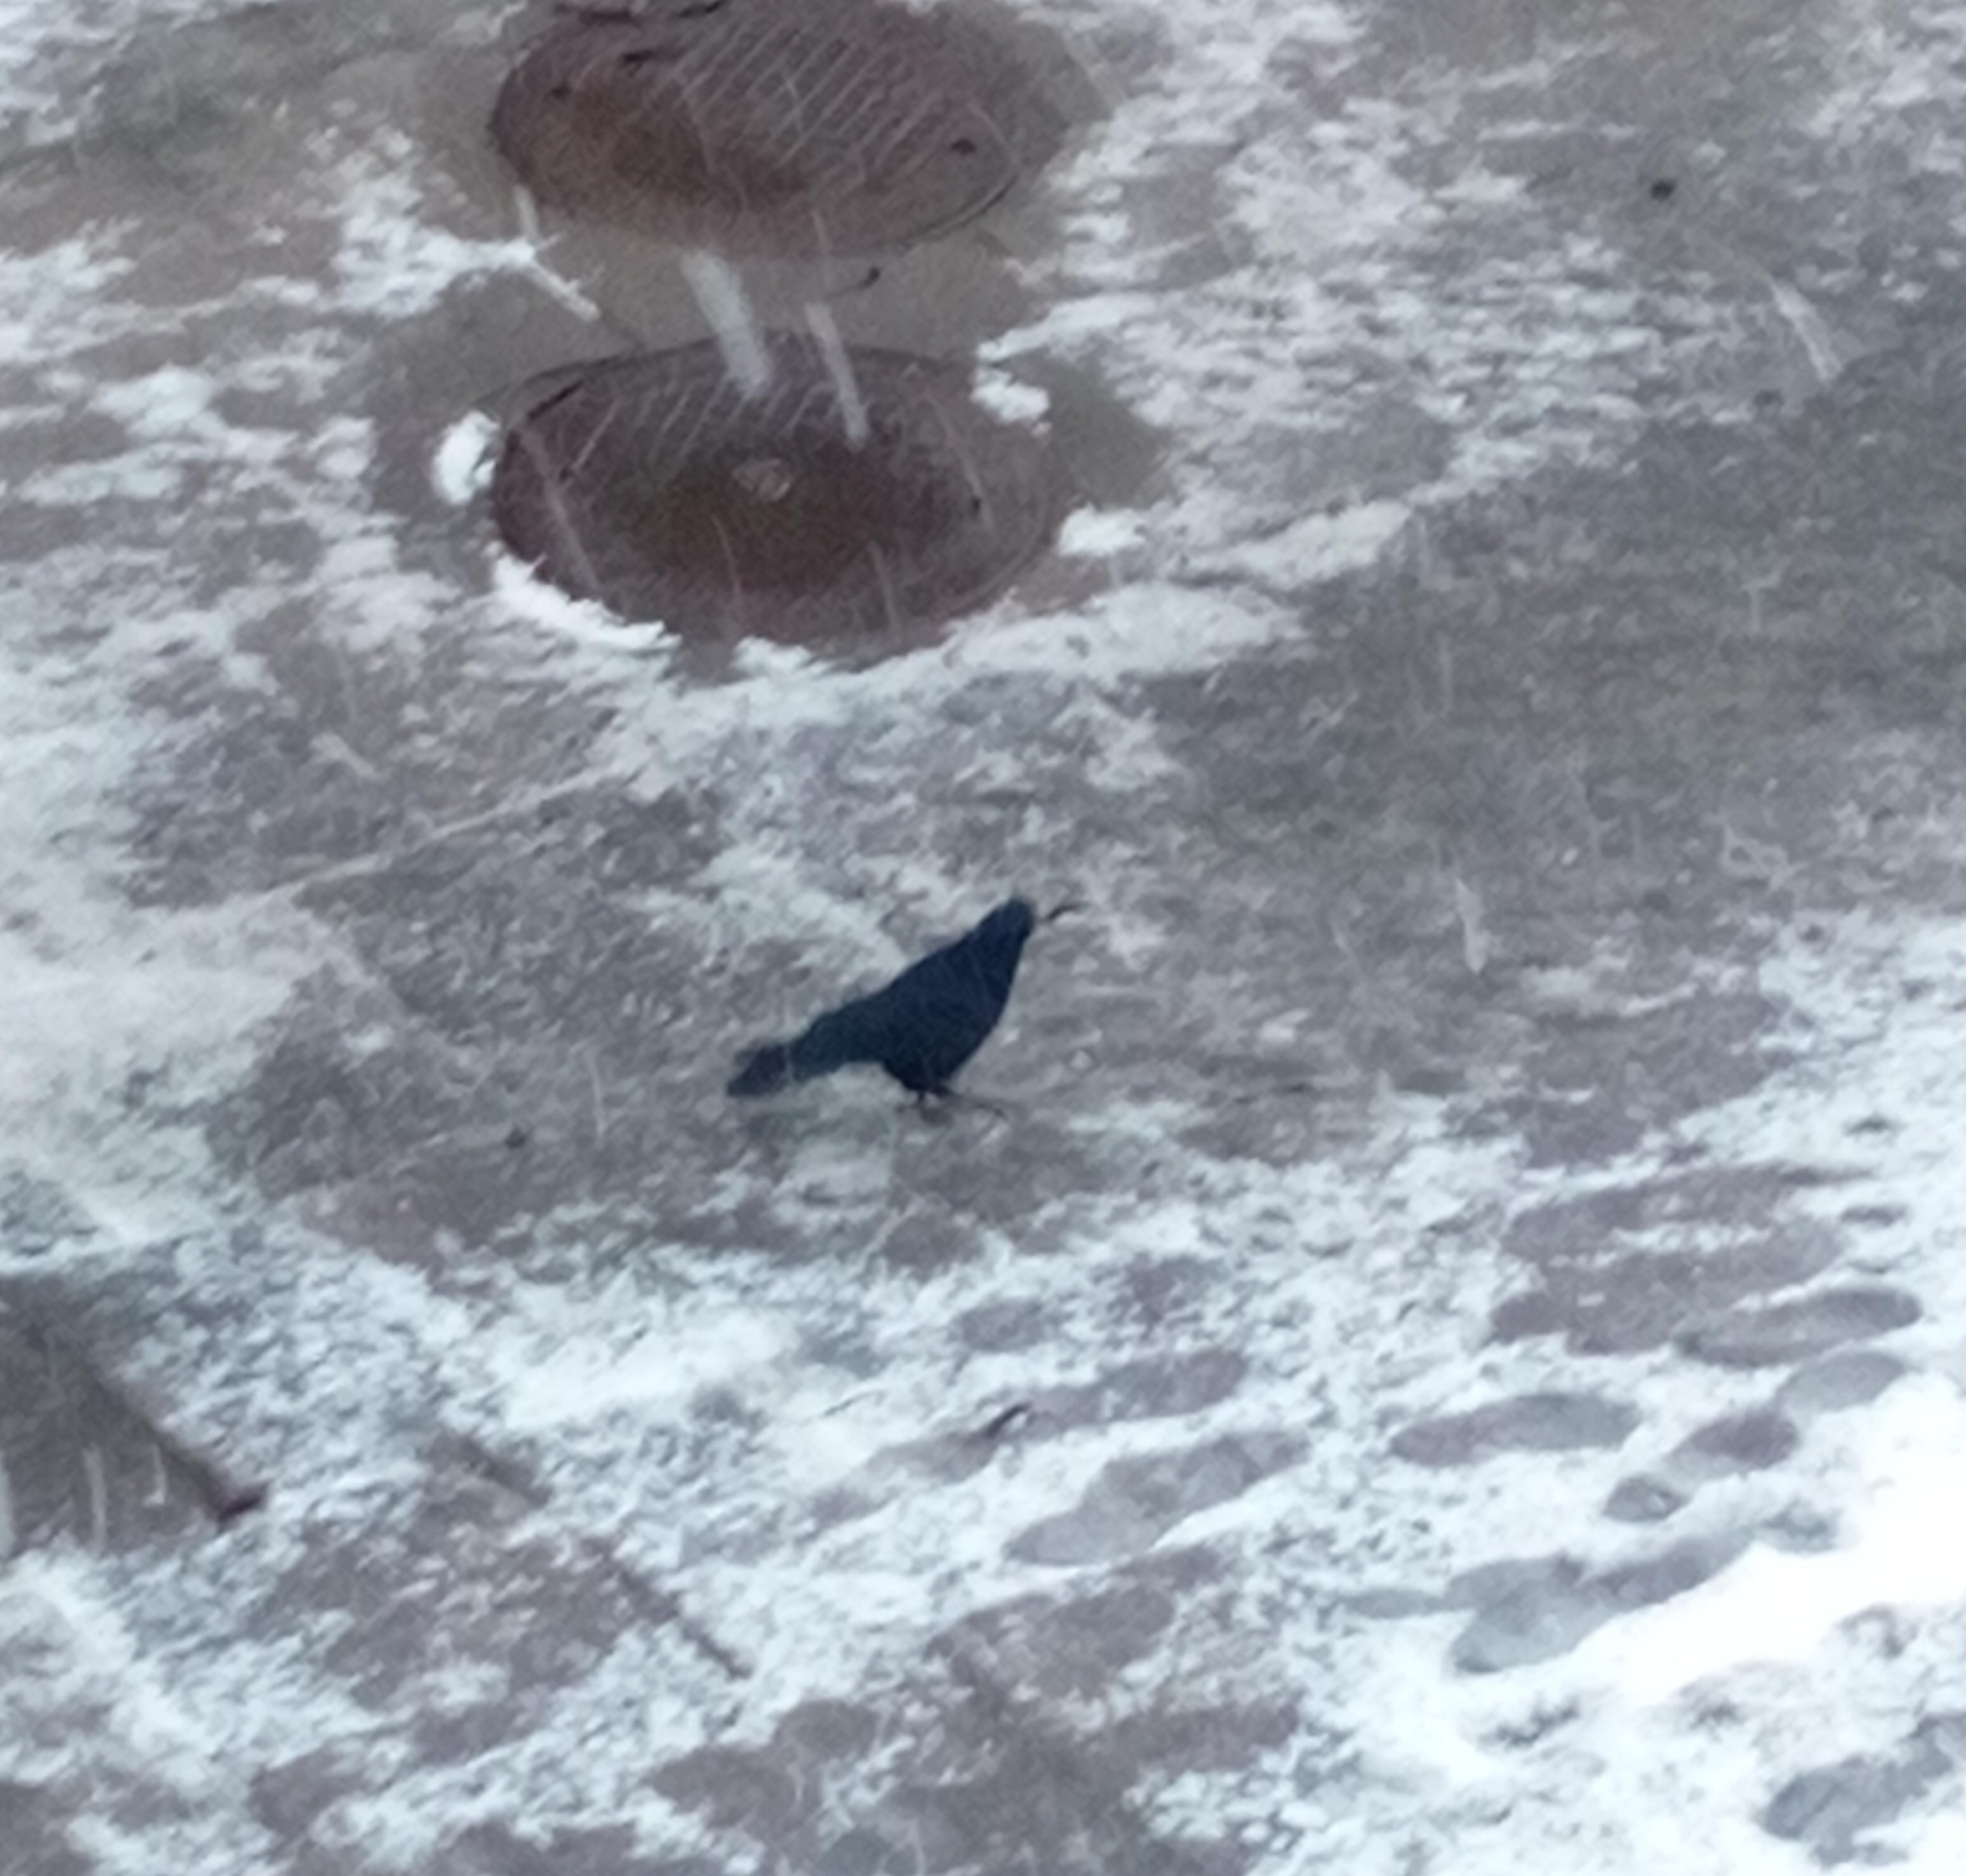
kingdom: Animalia
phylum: Chordata
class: Aves
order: Passeriformes
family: Corvidae
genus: Corvus
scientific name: Corvus frugilegus
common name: Rook
